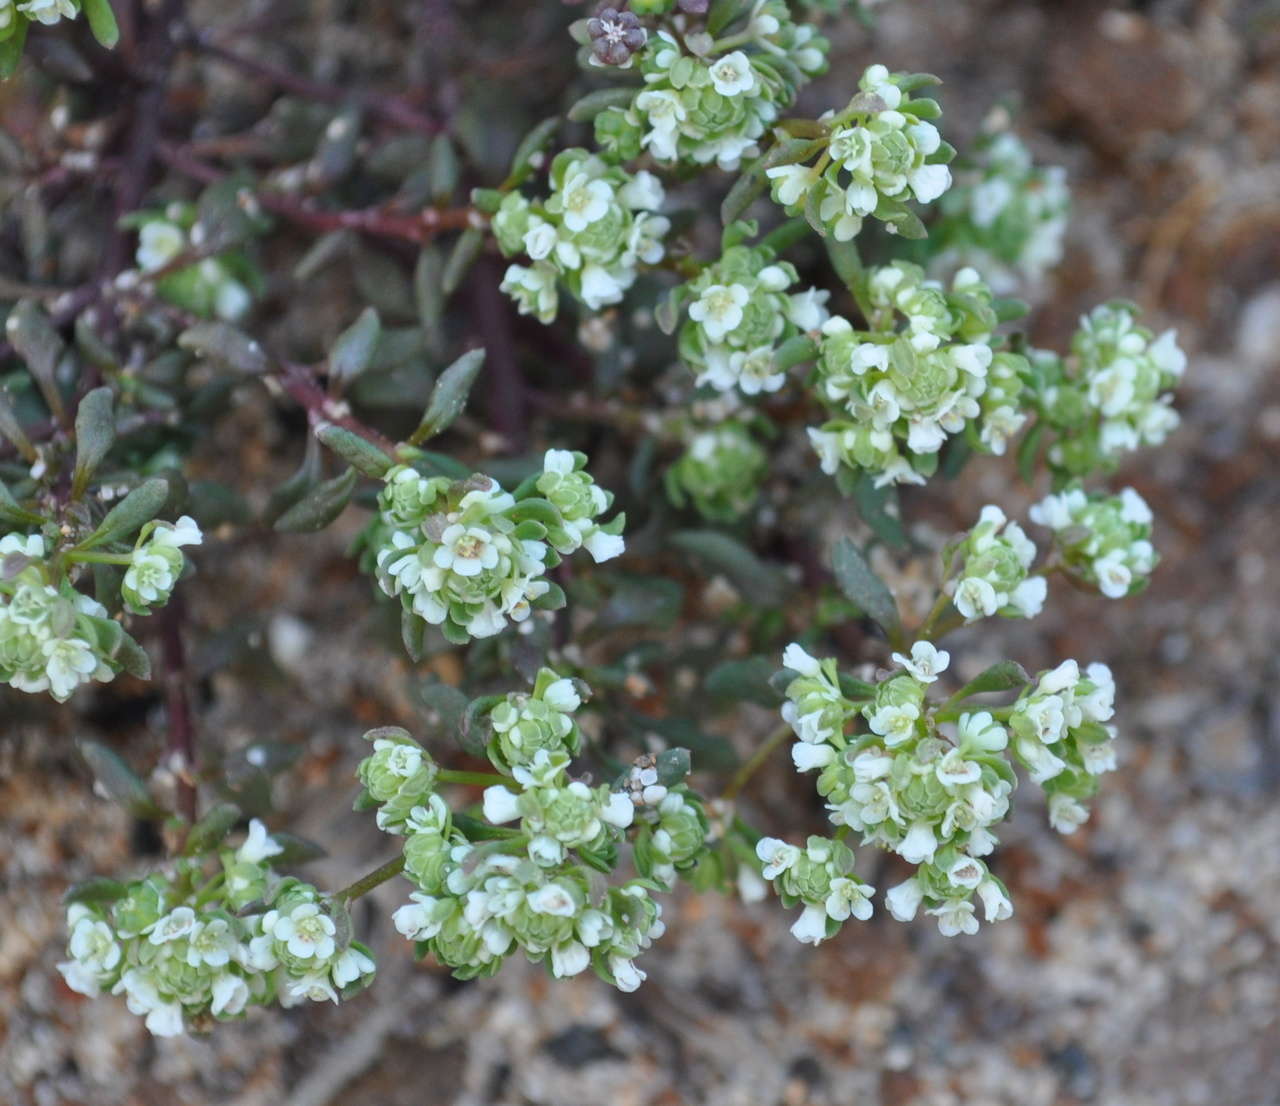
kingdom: Plantae
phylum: Tracheophyta
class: Magnoliopsida
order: Malpighiales
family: Phyllanthaceae
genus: Poranthera
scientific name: Poranthera microphylla
